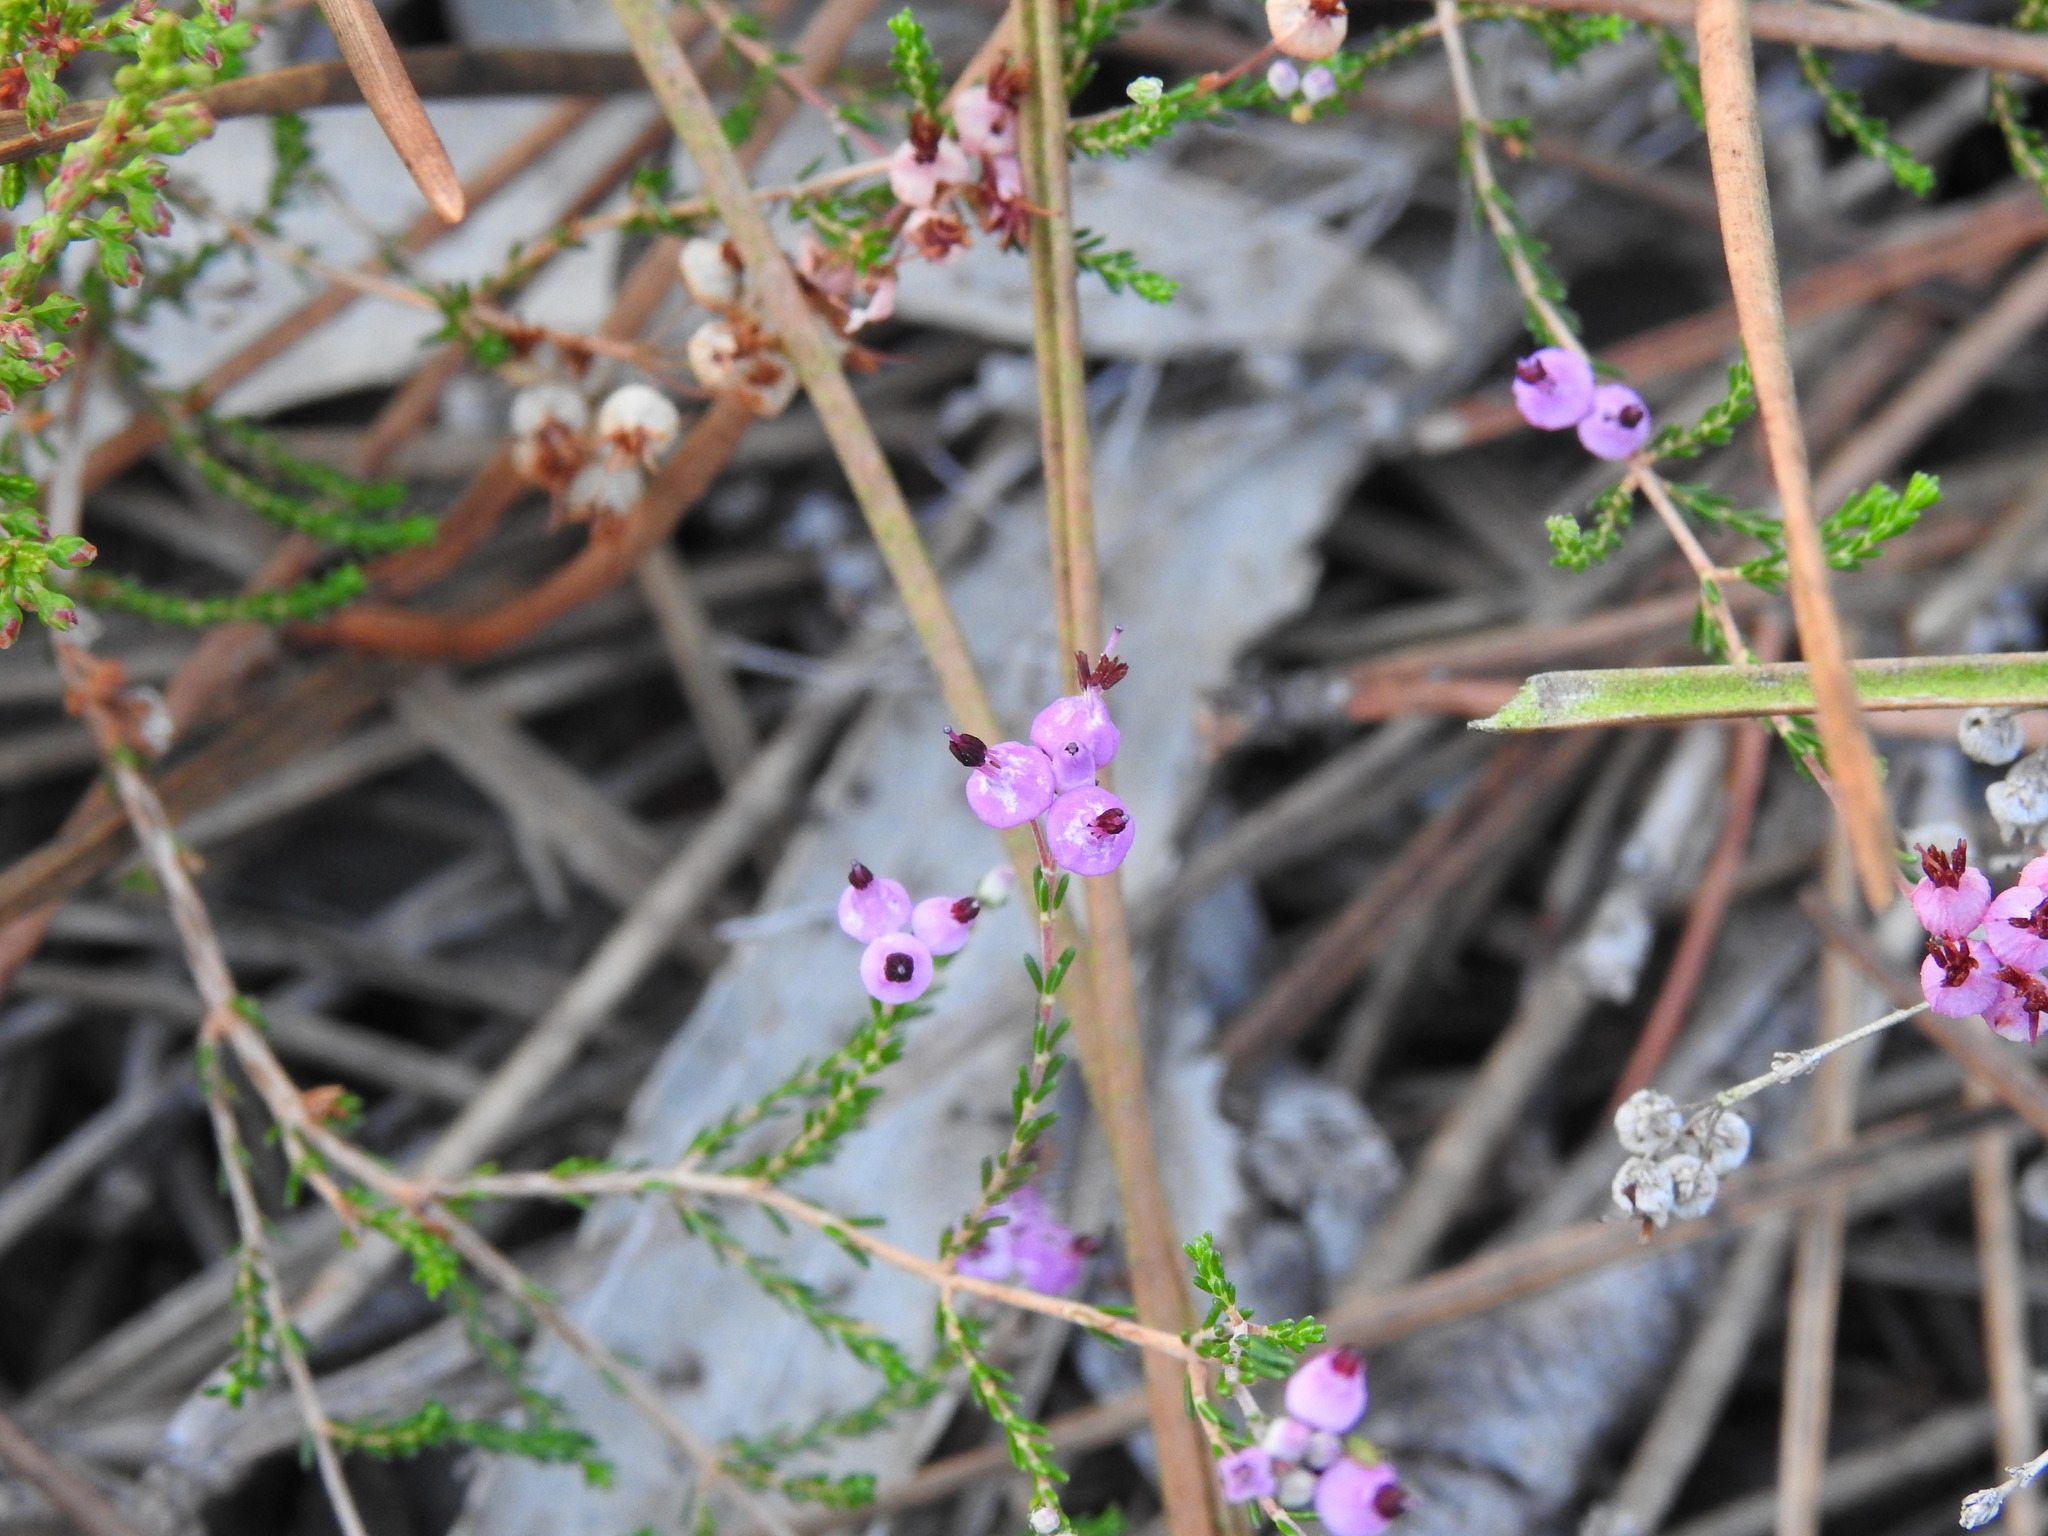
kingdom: Plantae
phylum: Tracheophyta
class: Magnoliopsida
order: Ericales
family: Ericaceae
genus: Erica
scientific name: Erica umbellata
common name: Dwarf spanish heath
